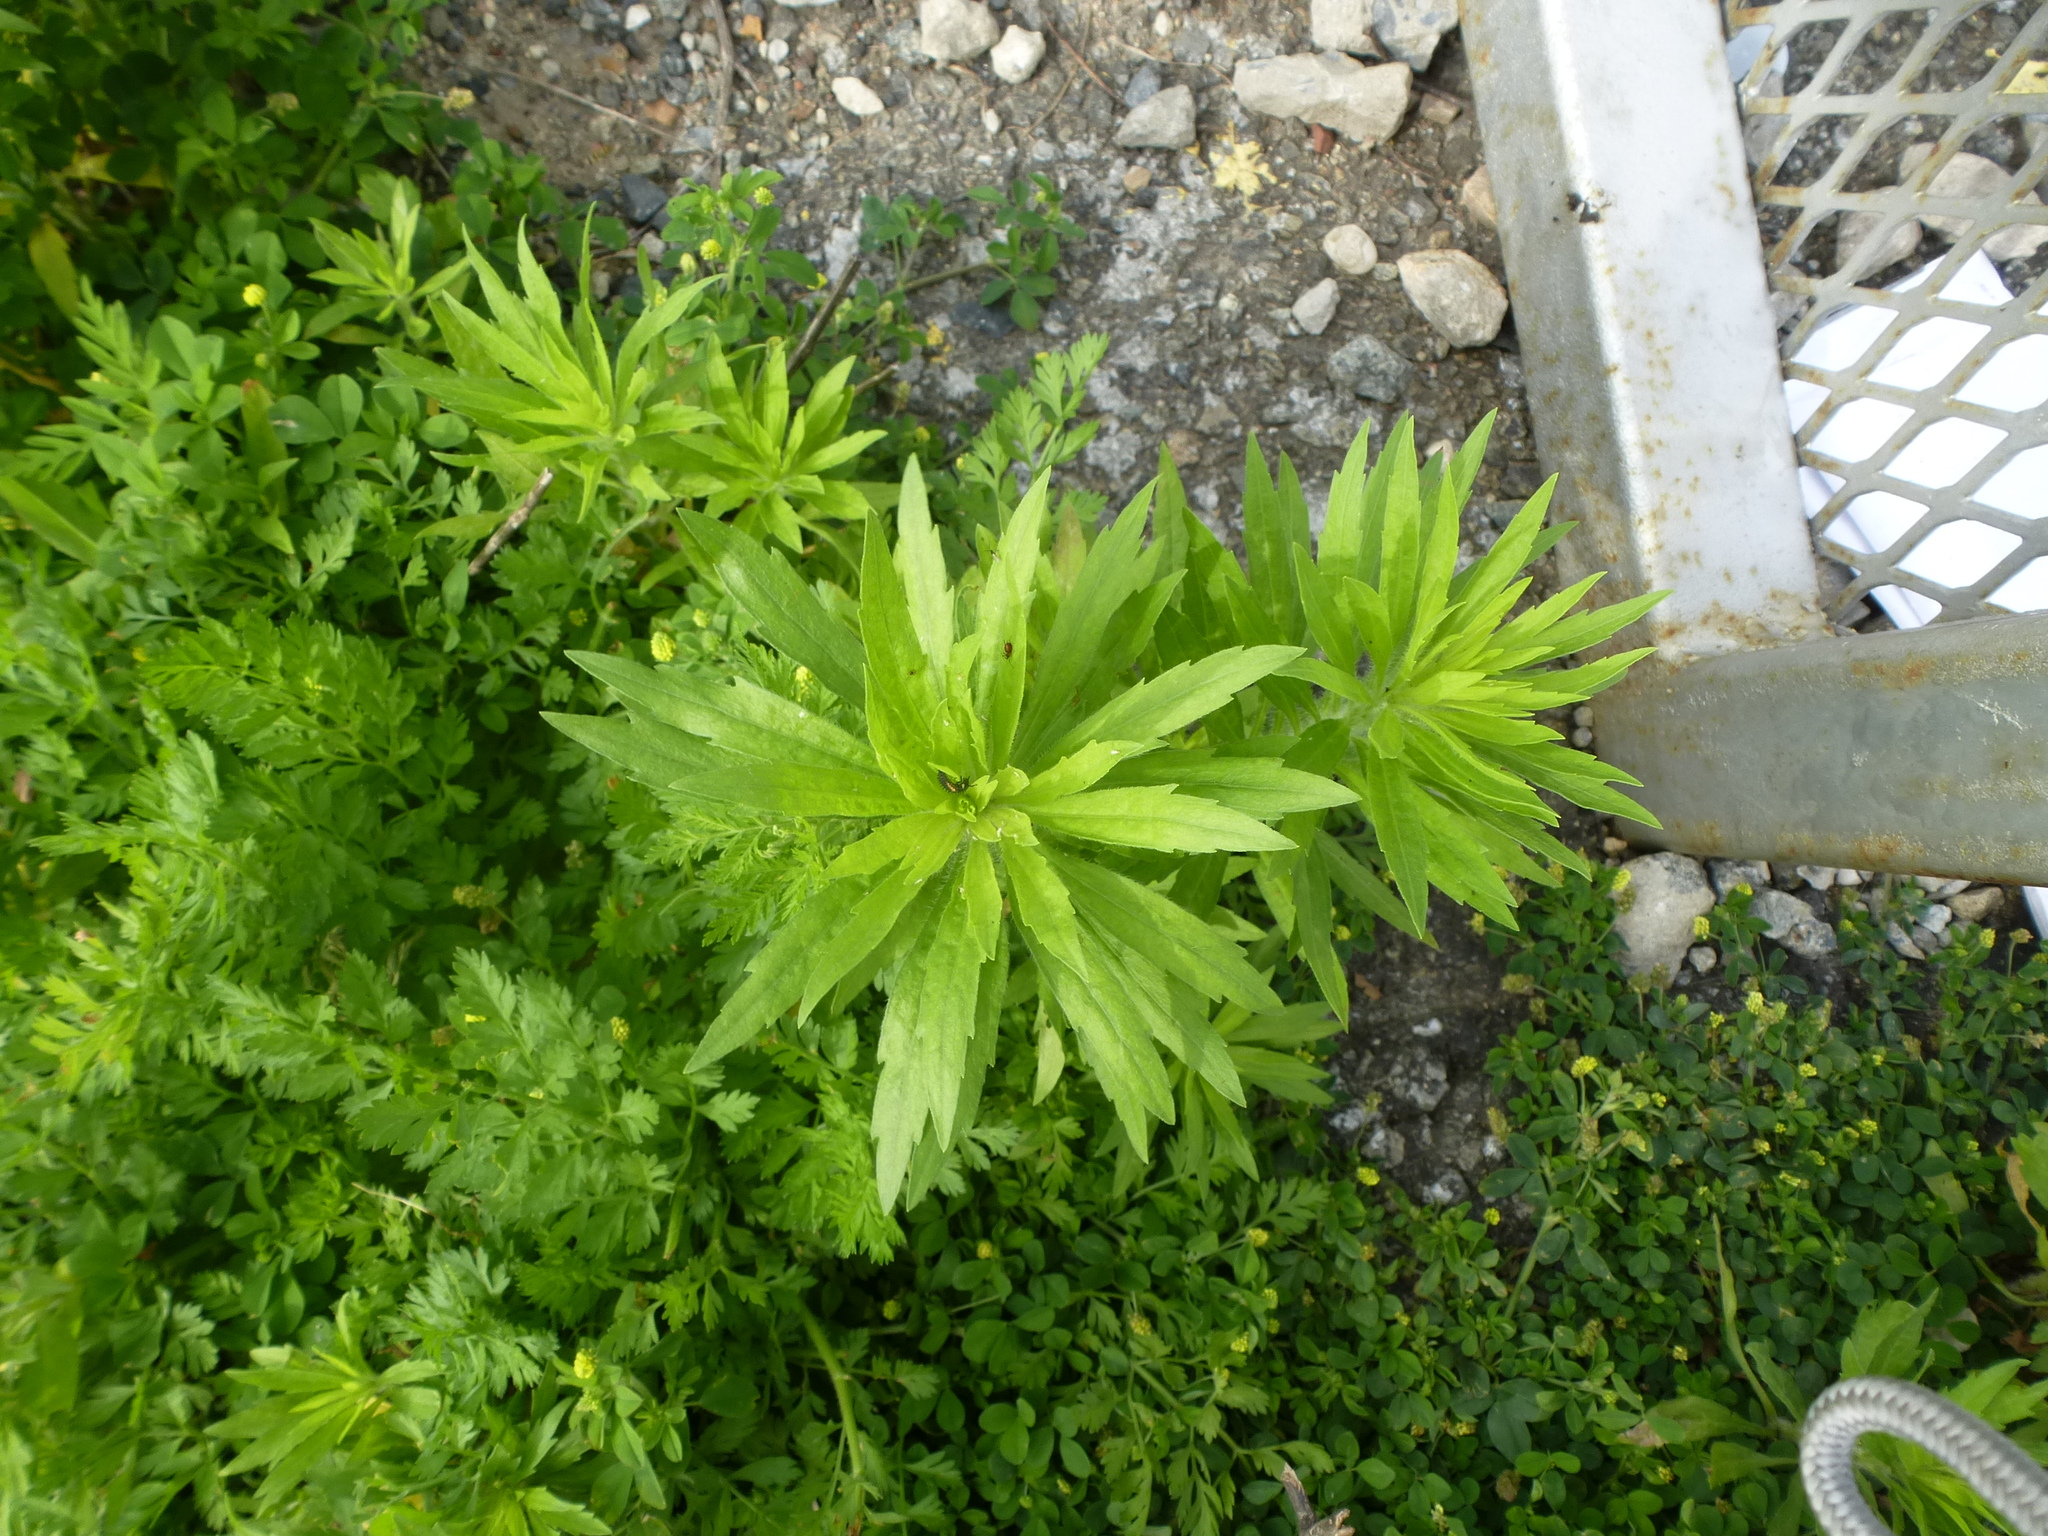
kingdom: Plantae
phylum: Tracheophyta
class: Magnoliopsida
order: Asterales
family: Asteraceae
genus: Erigeron
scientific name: Erigeron canadensis
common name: Canadian fleabane
